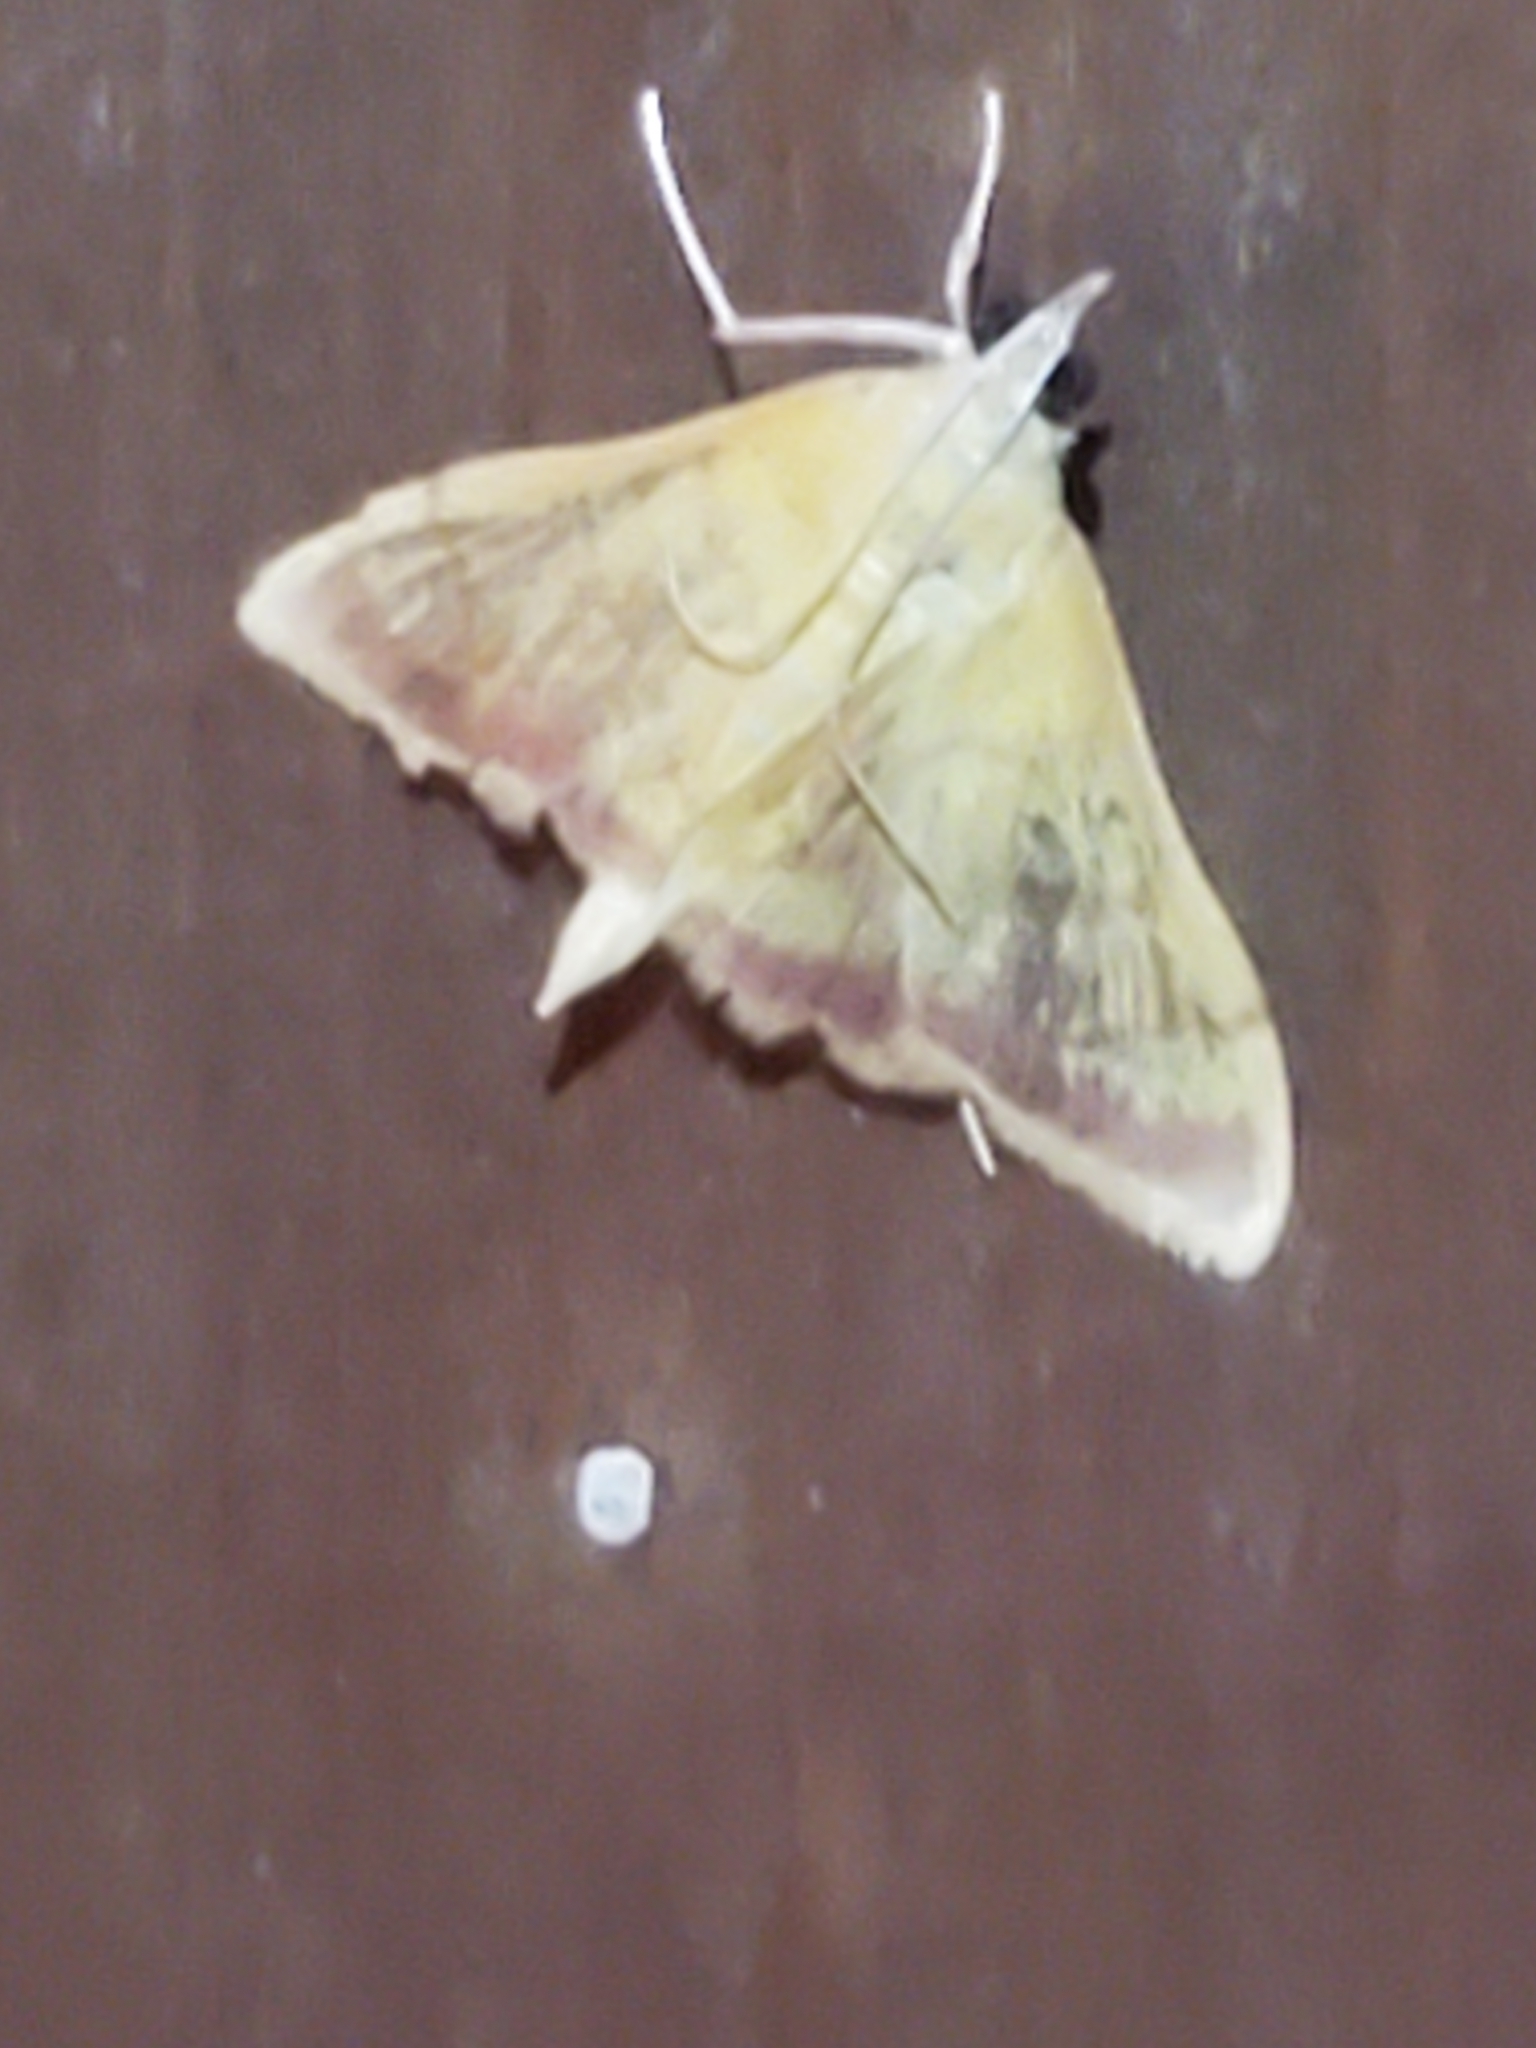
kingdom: Animalia
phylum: Arthropoda
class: Insecta
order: Lepidoptera
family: Crambidae
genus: Pyrausta
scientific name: Pyrausta pseudonythesalis
